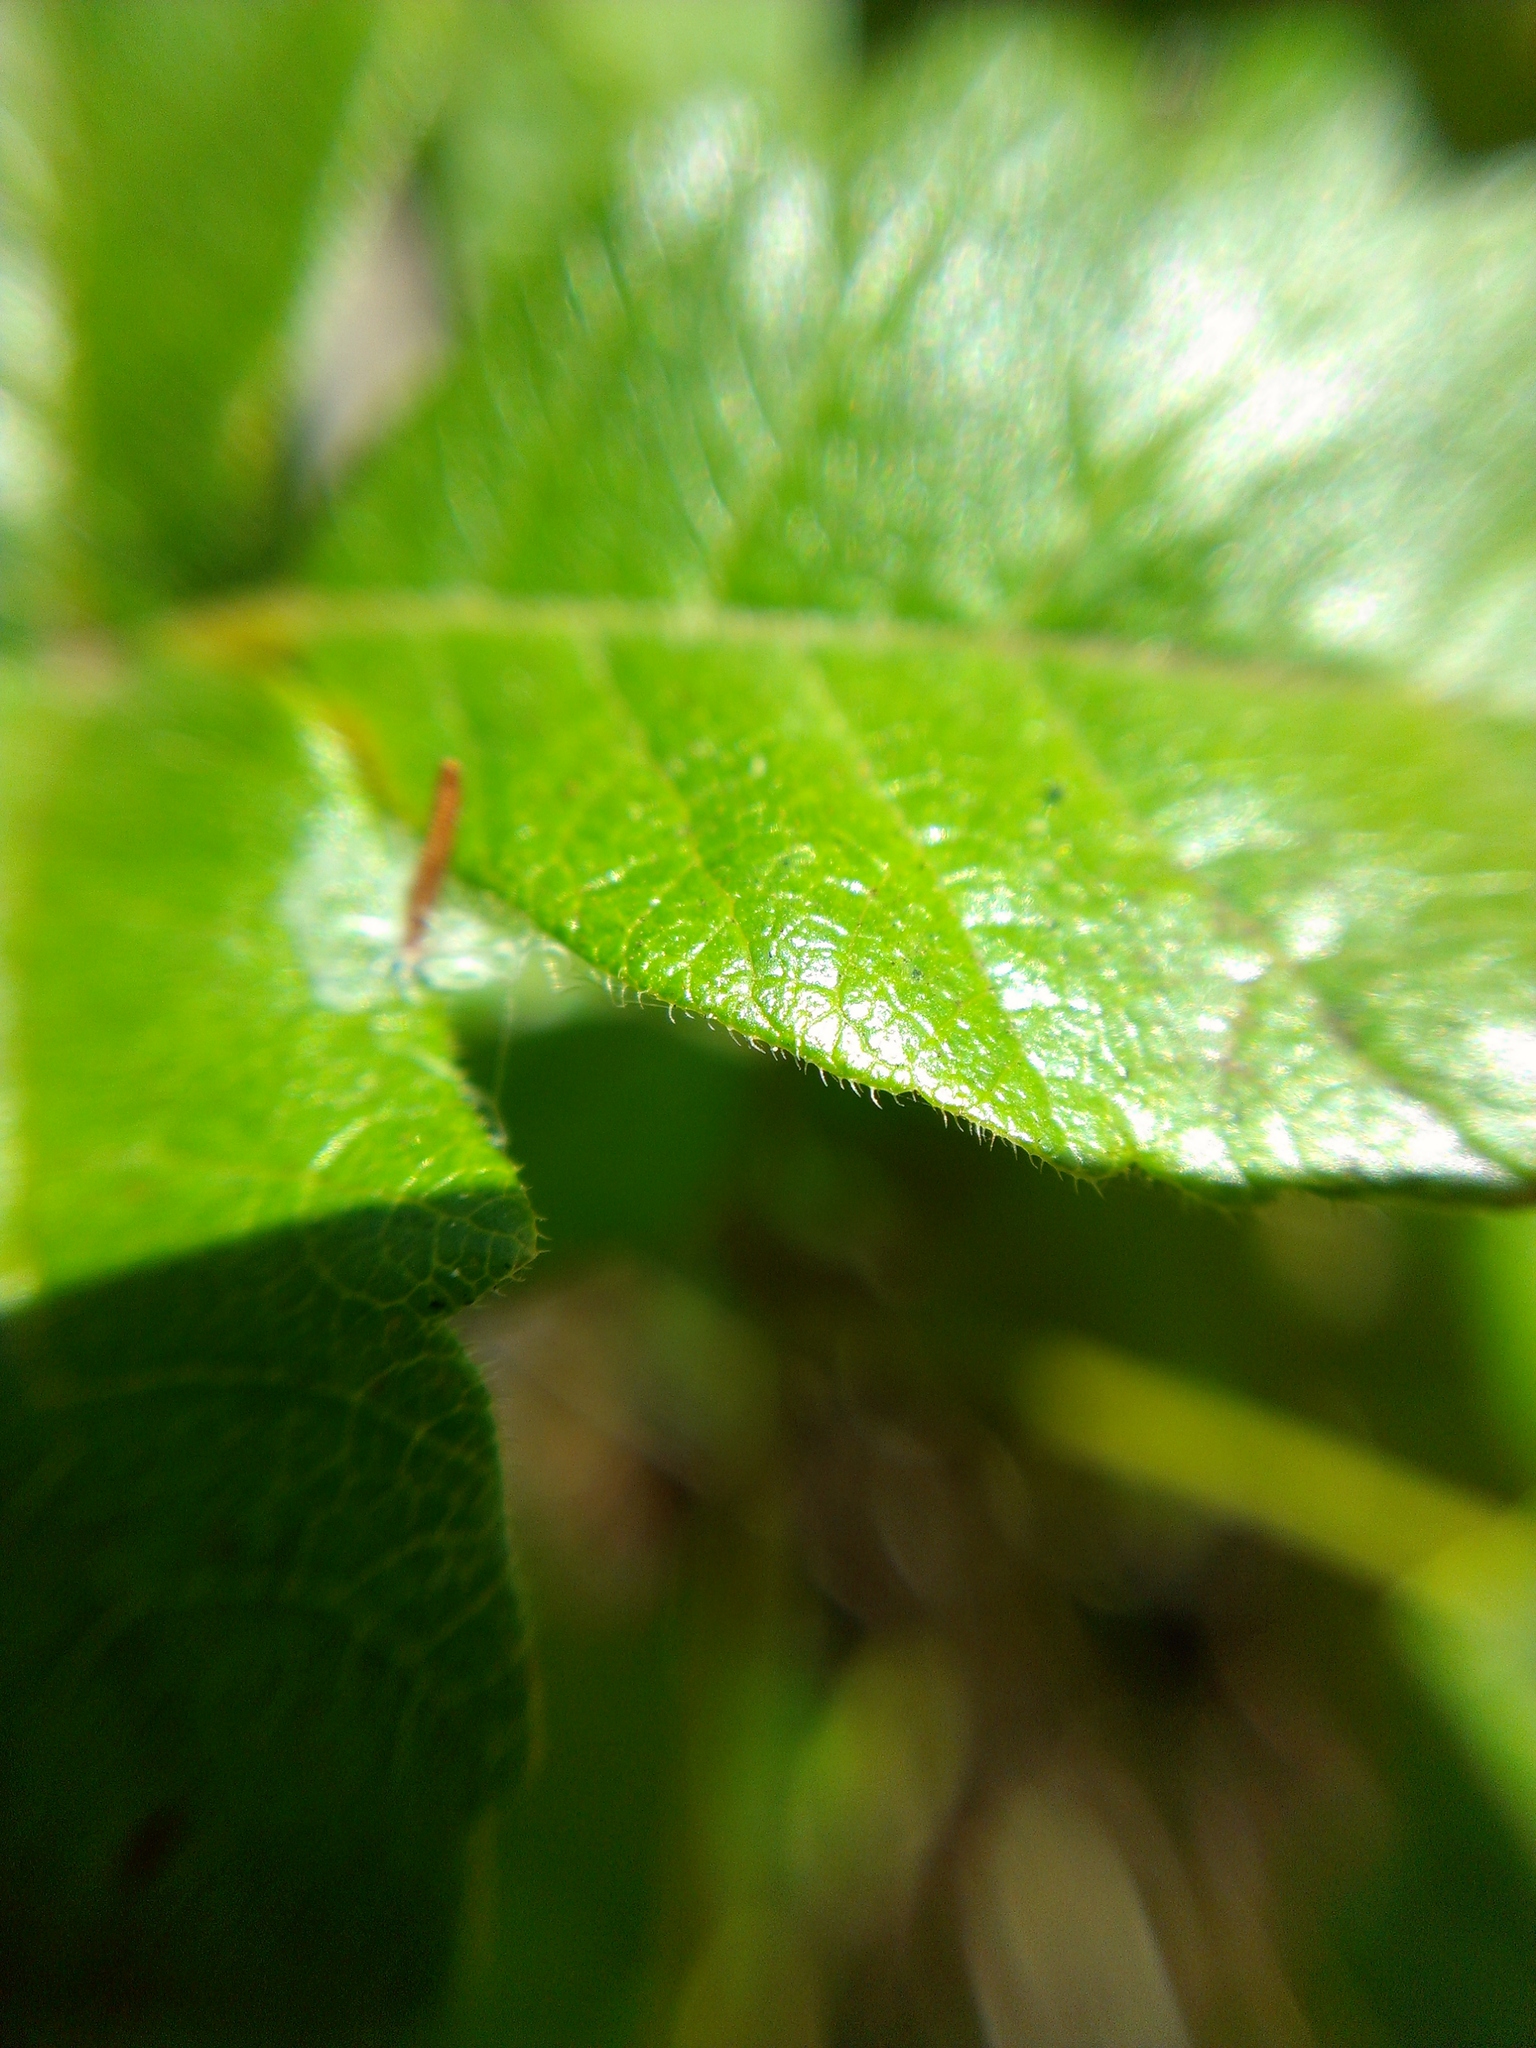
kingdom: Plantae
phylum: Tracheophyta
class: Magnoliopsida
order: Sapindales
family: Anacardiaceae
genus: Toxicodendron
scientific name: Toxicodendron diversilobum
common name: Pacific poison-oak
